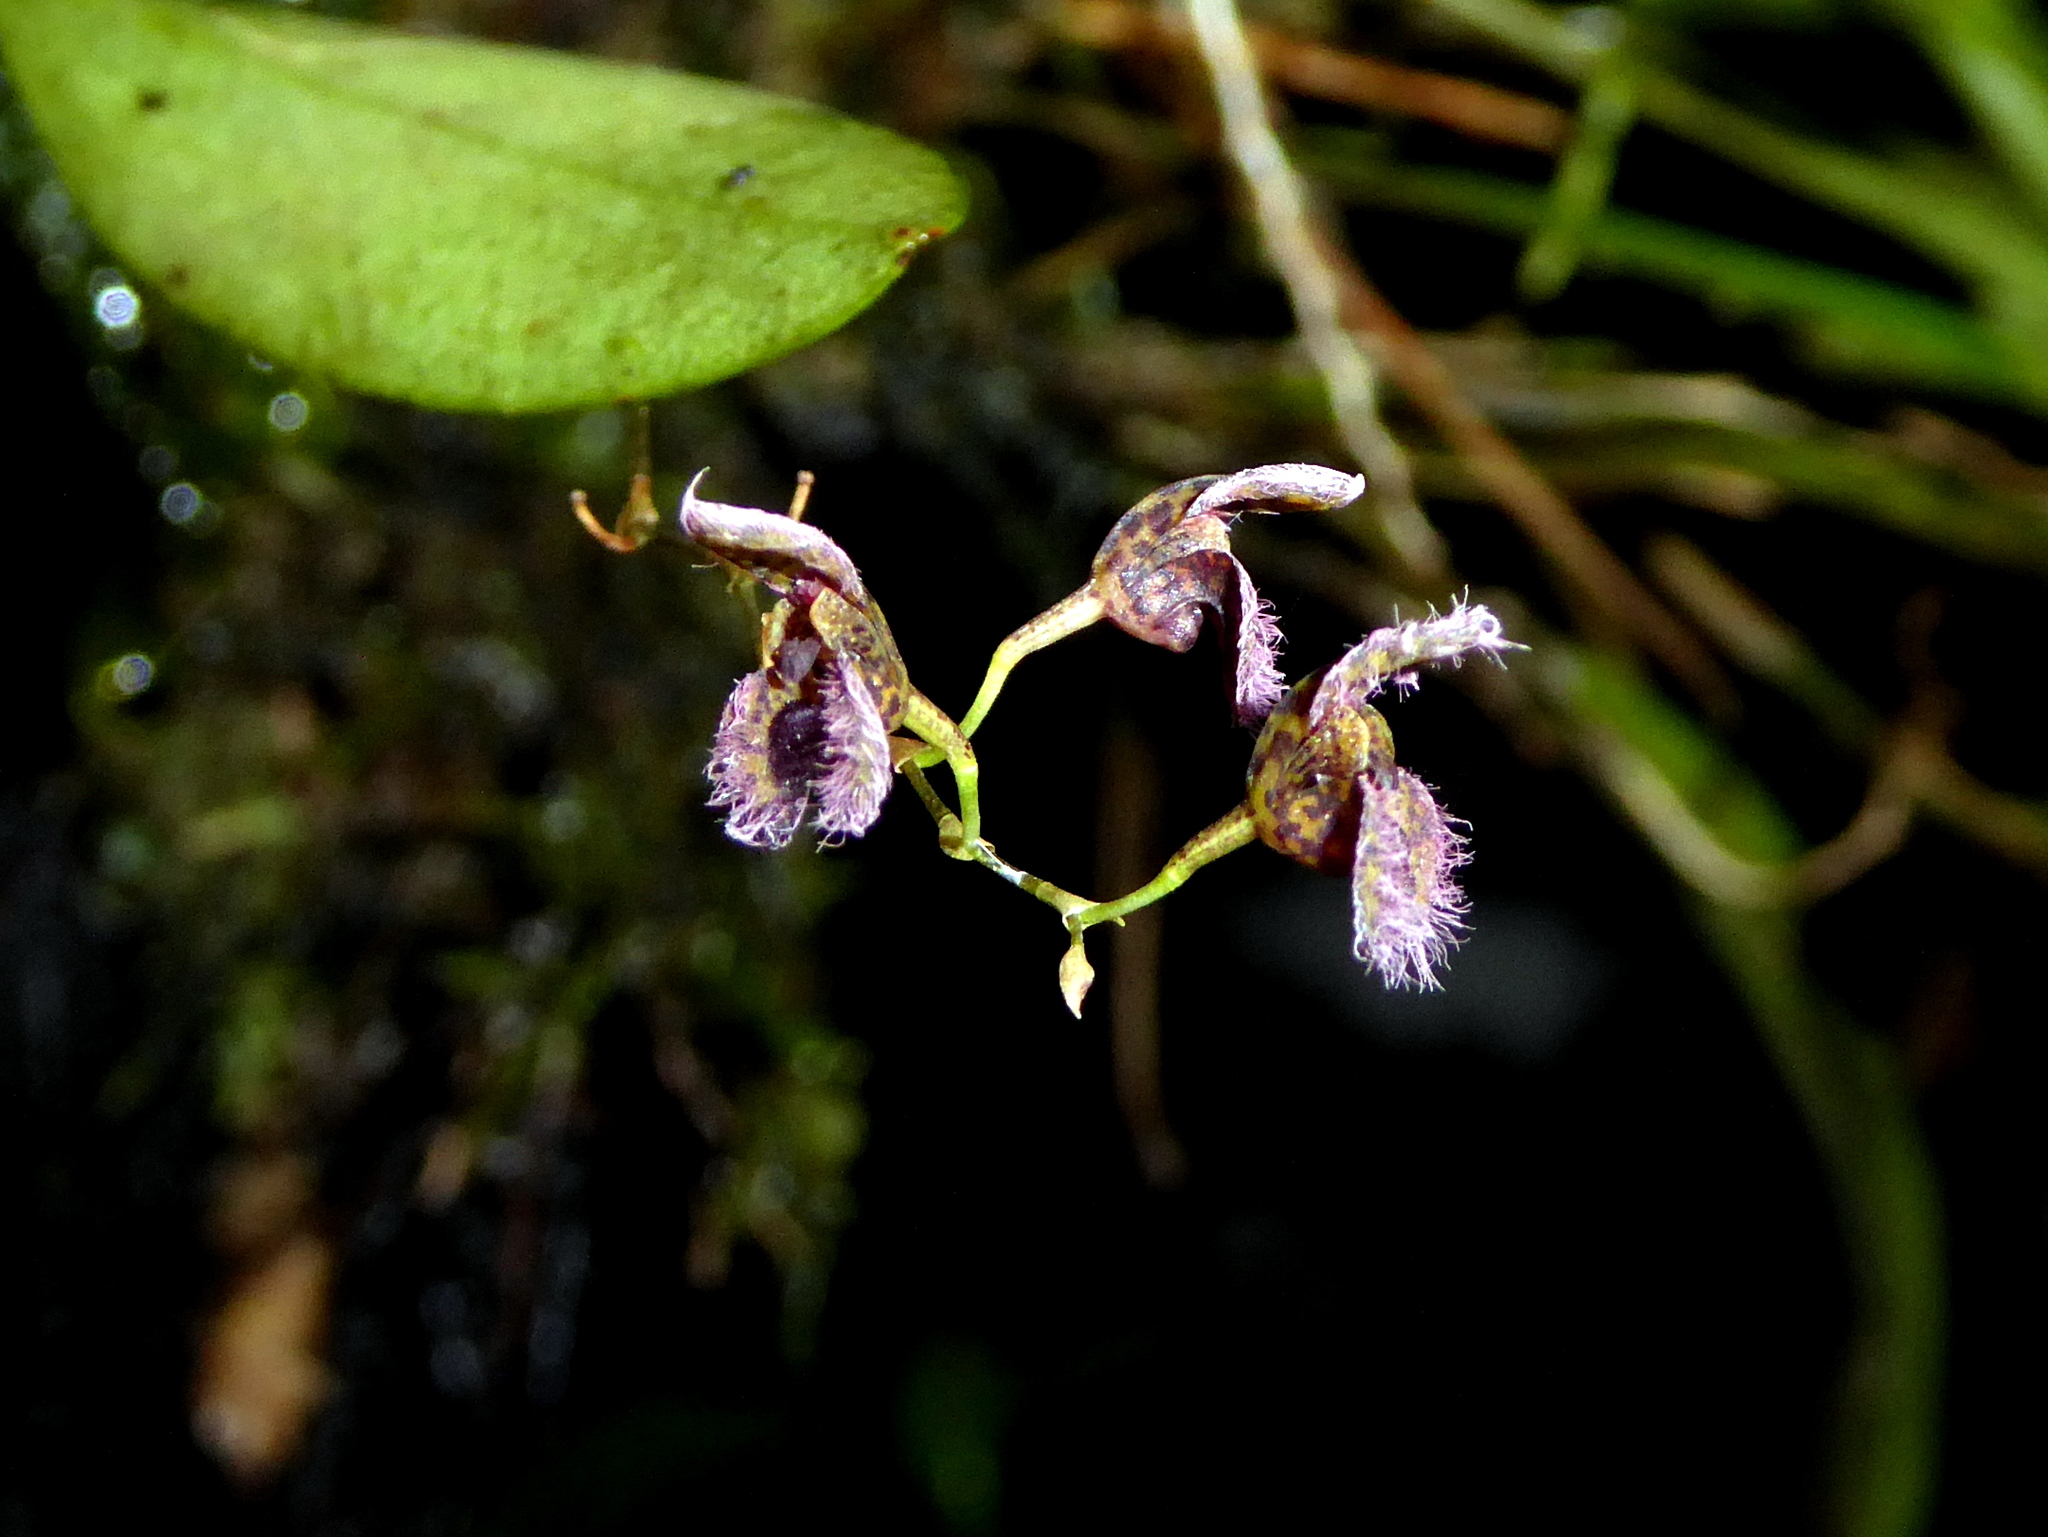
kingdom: Plantae
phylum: Tracheophyta
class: Liliopsida
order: Asparagales
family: Orchidaceae
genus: Stelis
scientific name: Stelis villosa
